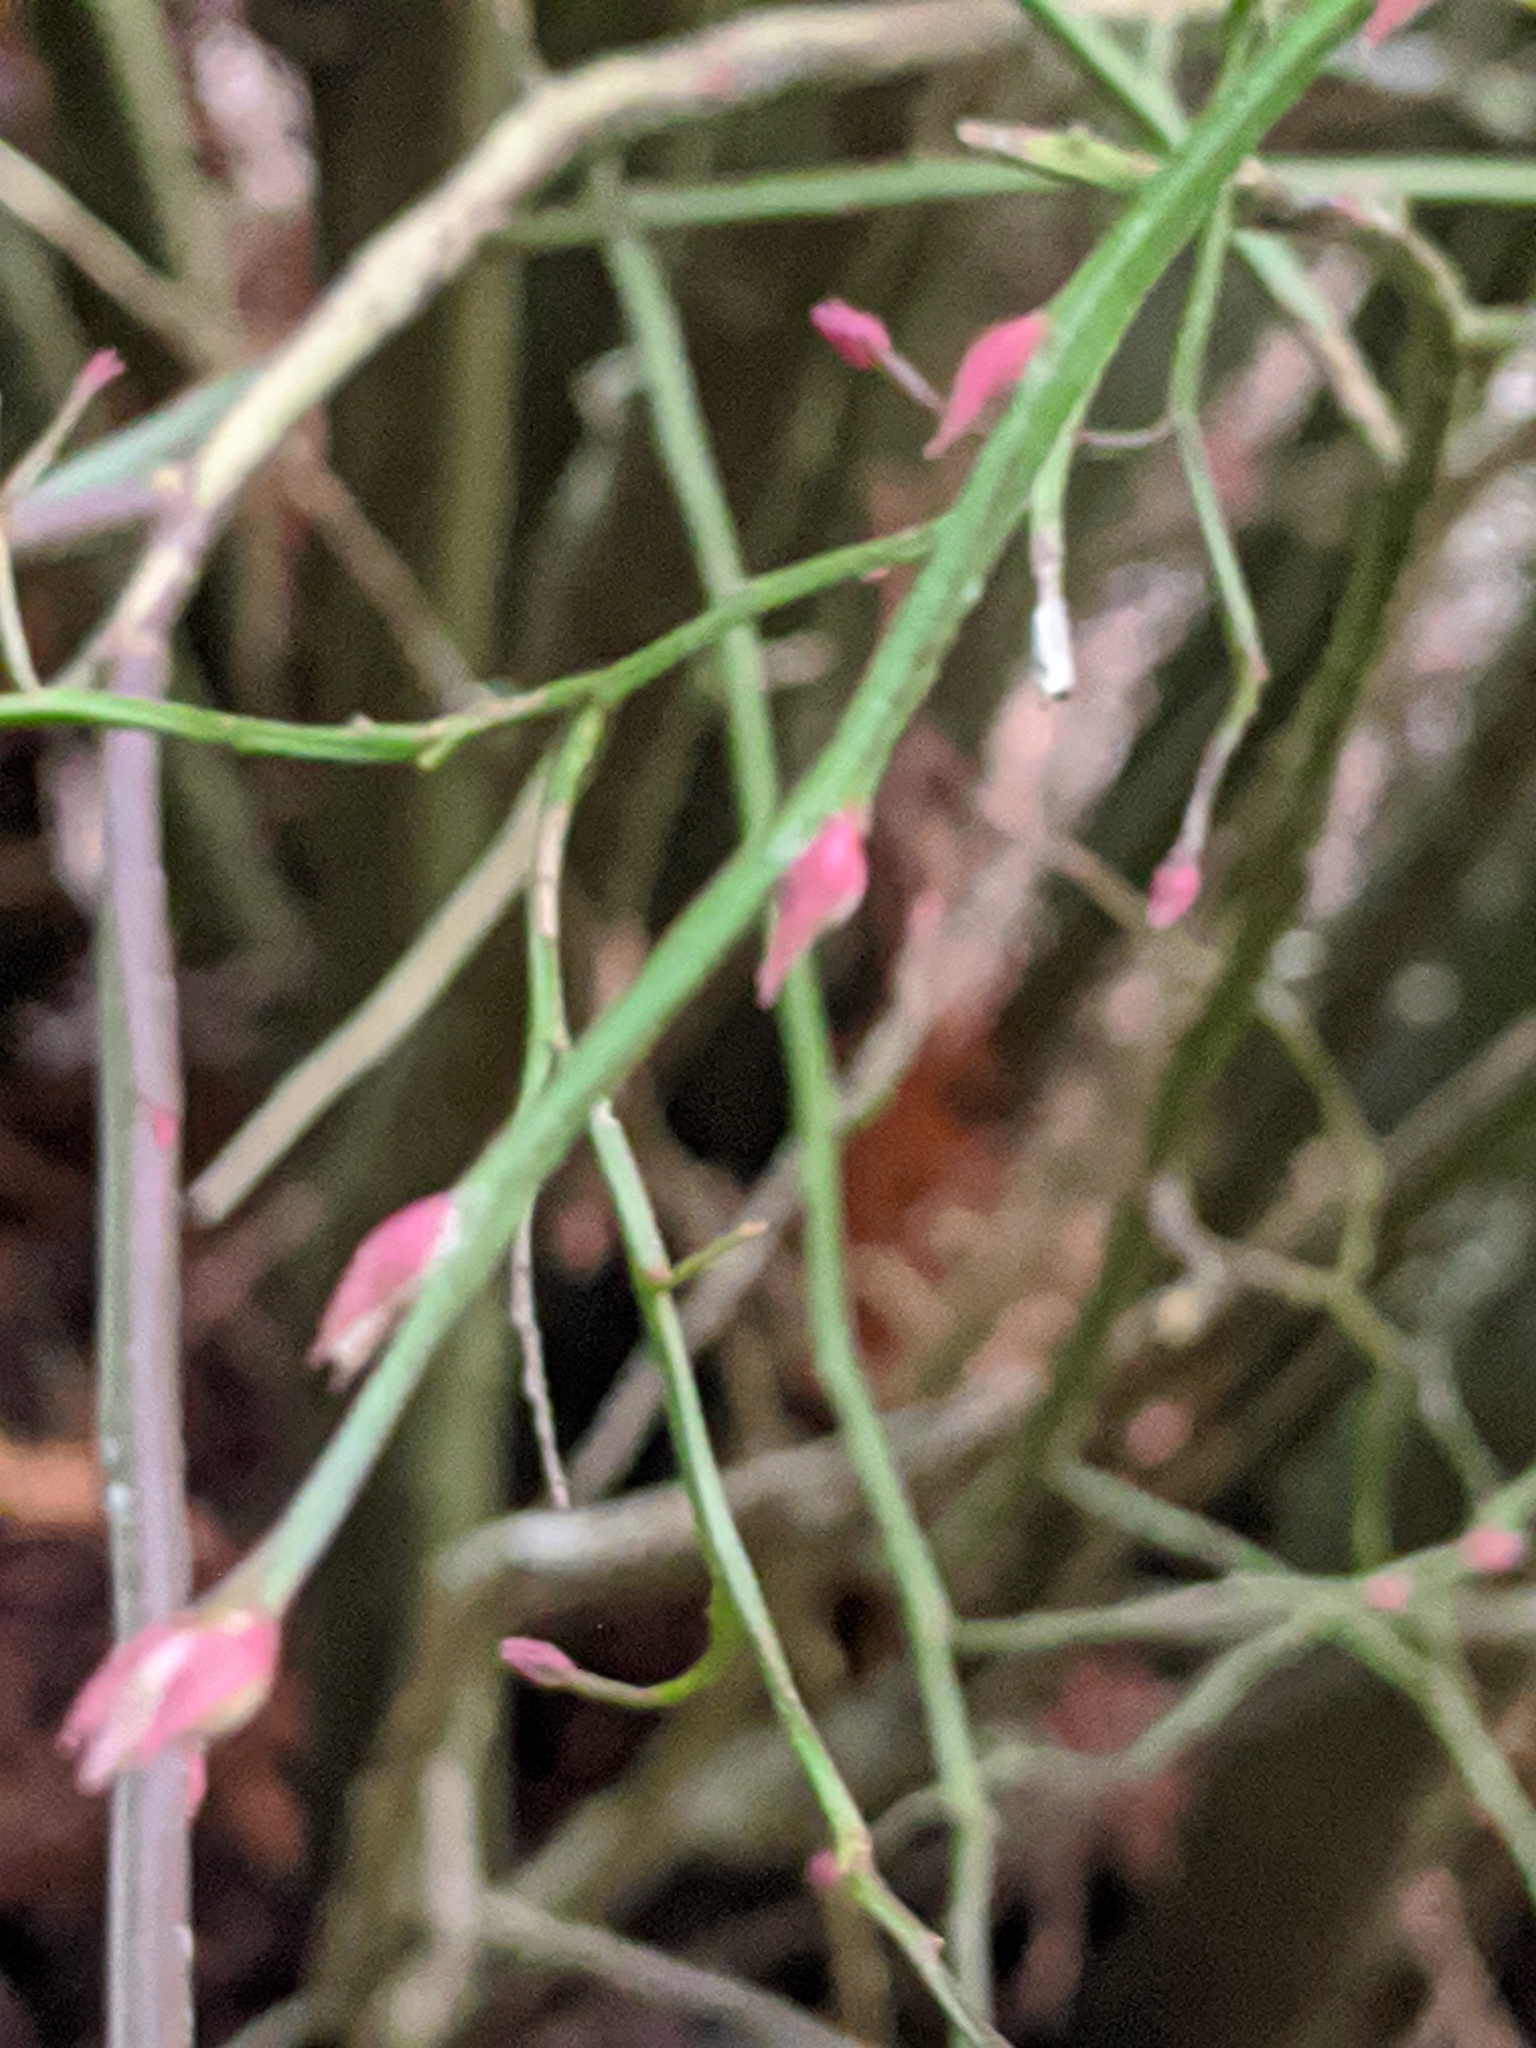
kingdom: Plantae
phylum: Tracheophyta
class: Magnoliopsida
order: Ericales
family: Ericaceae
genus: Vaccinium
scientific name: Vaccinium parvifolium
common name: Red-huckleberry
